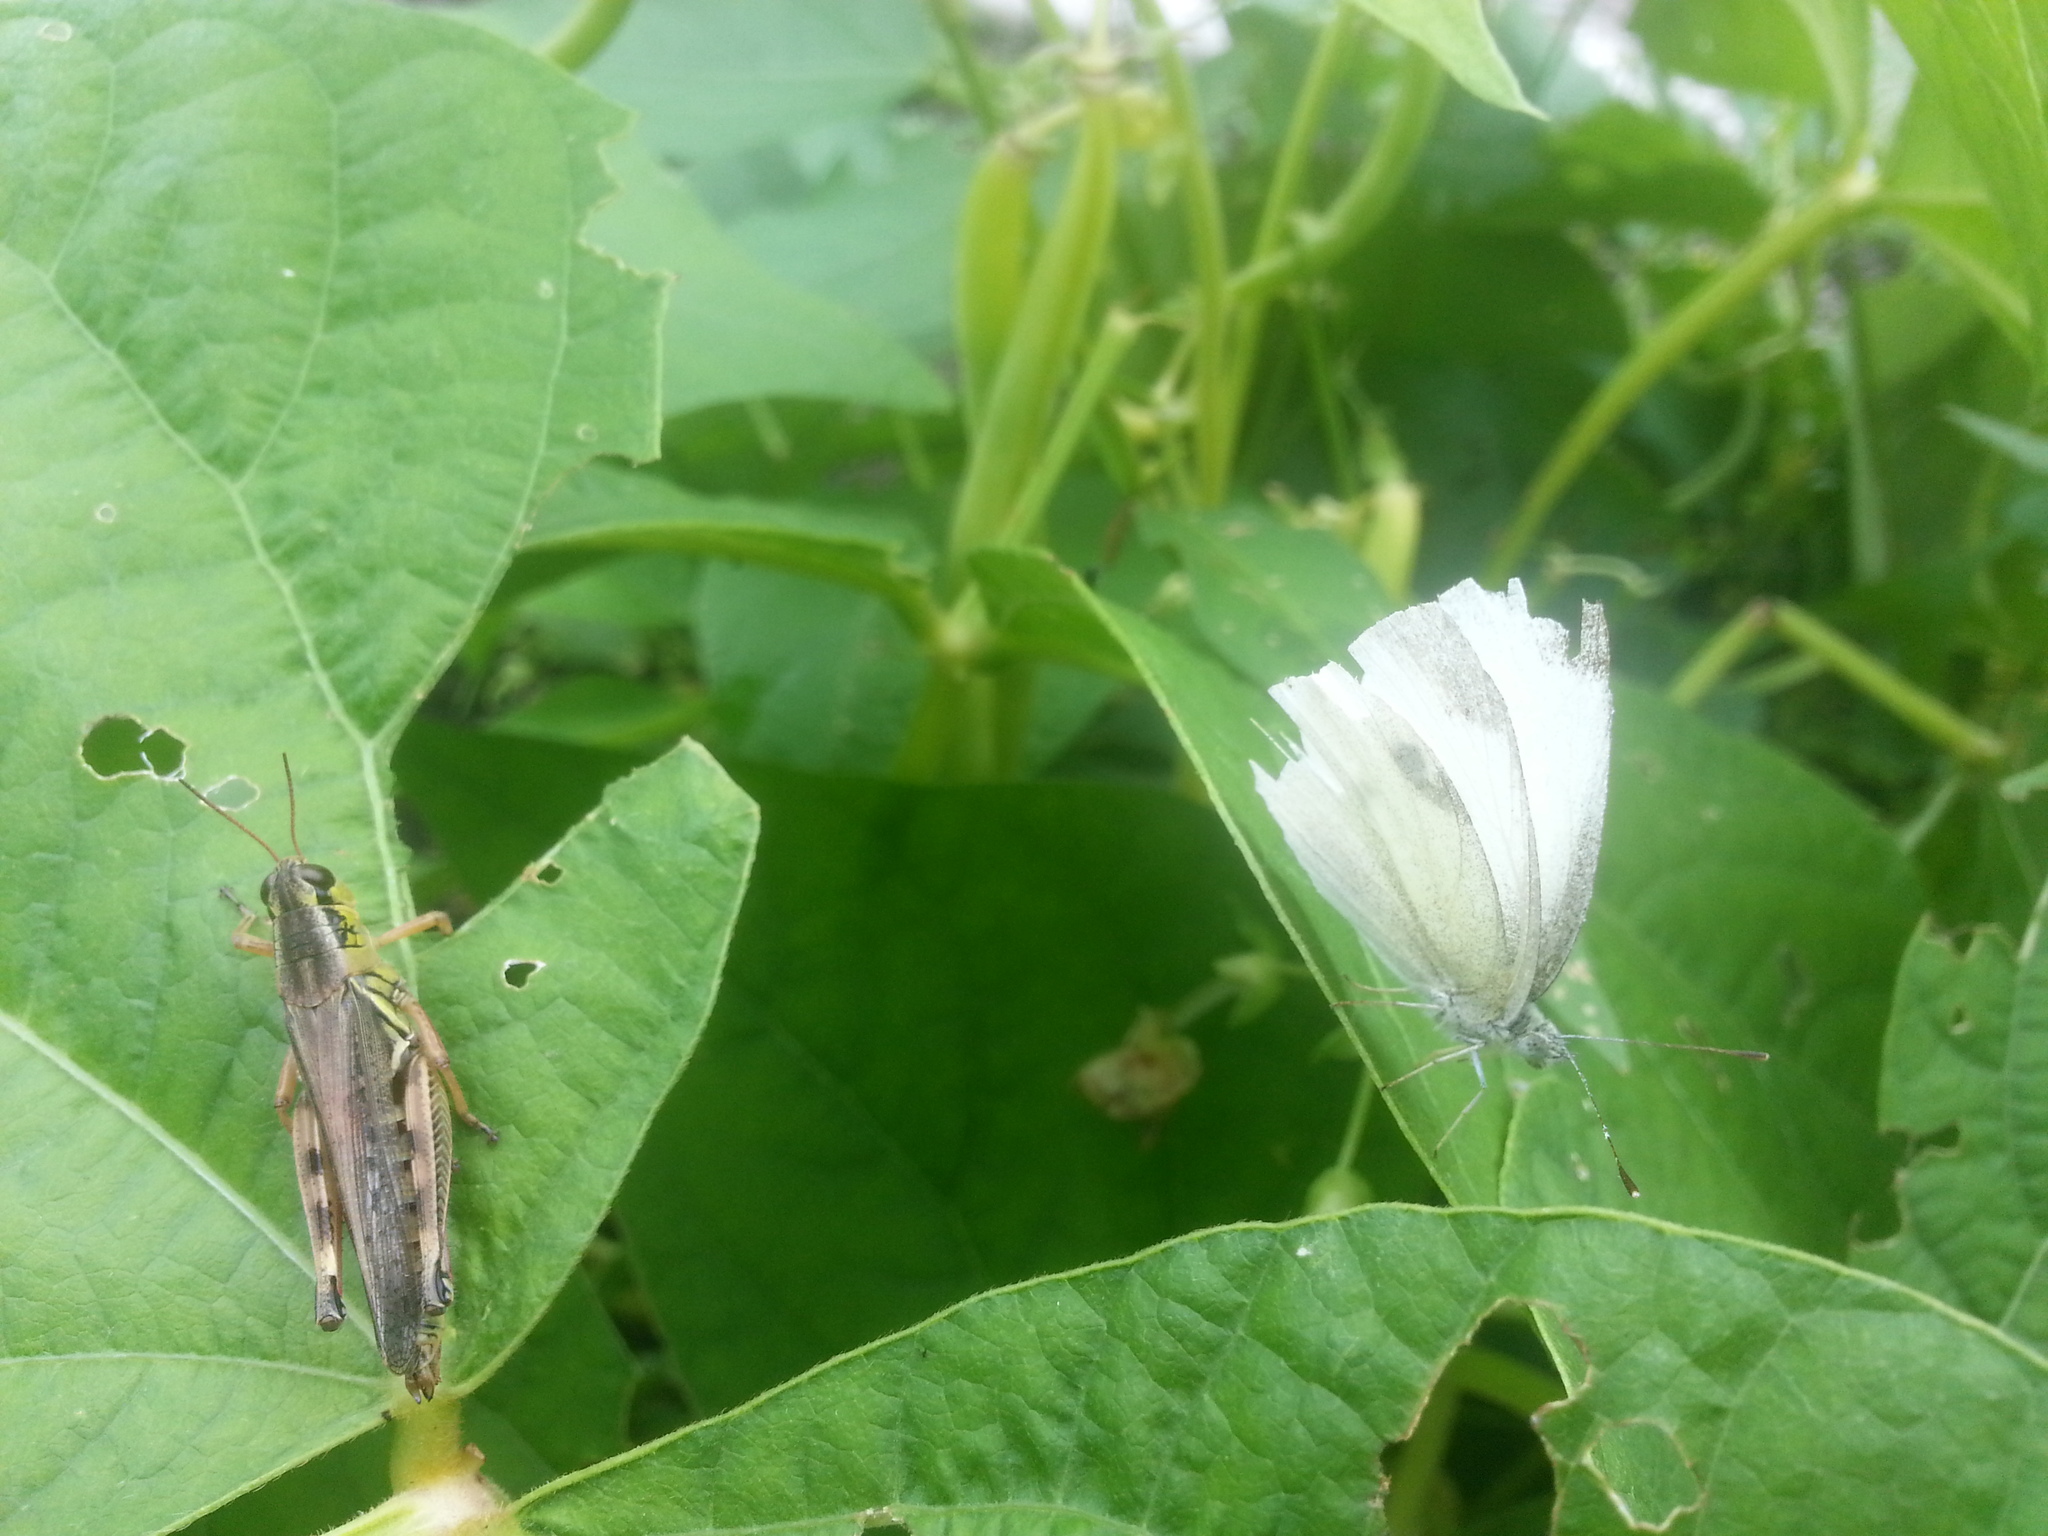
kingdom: Animalia
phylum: Arthropoda
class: Insecta
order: Lepidoptera
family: Pieridae
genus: Pieris
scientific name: Pieris rapae
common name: Small white
